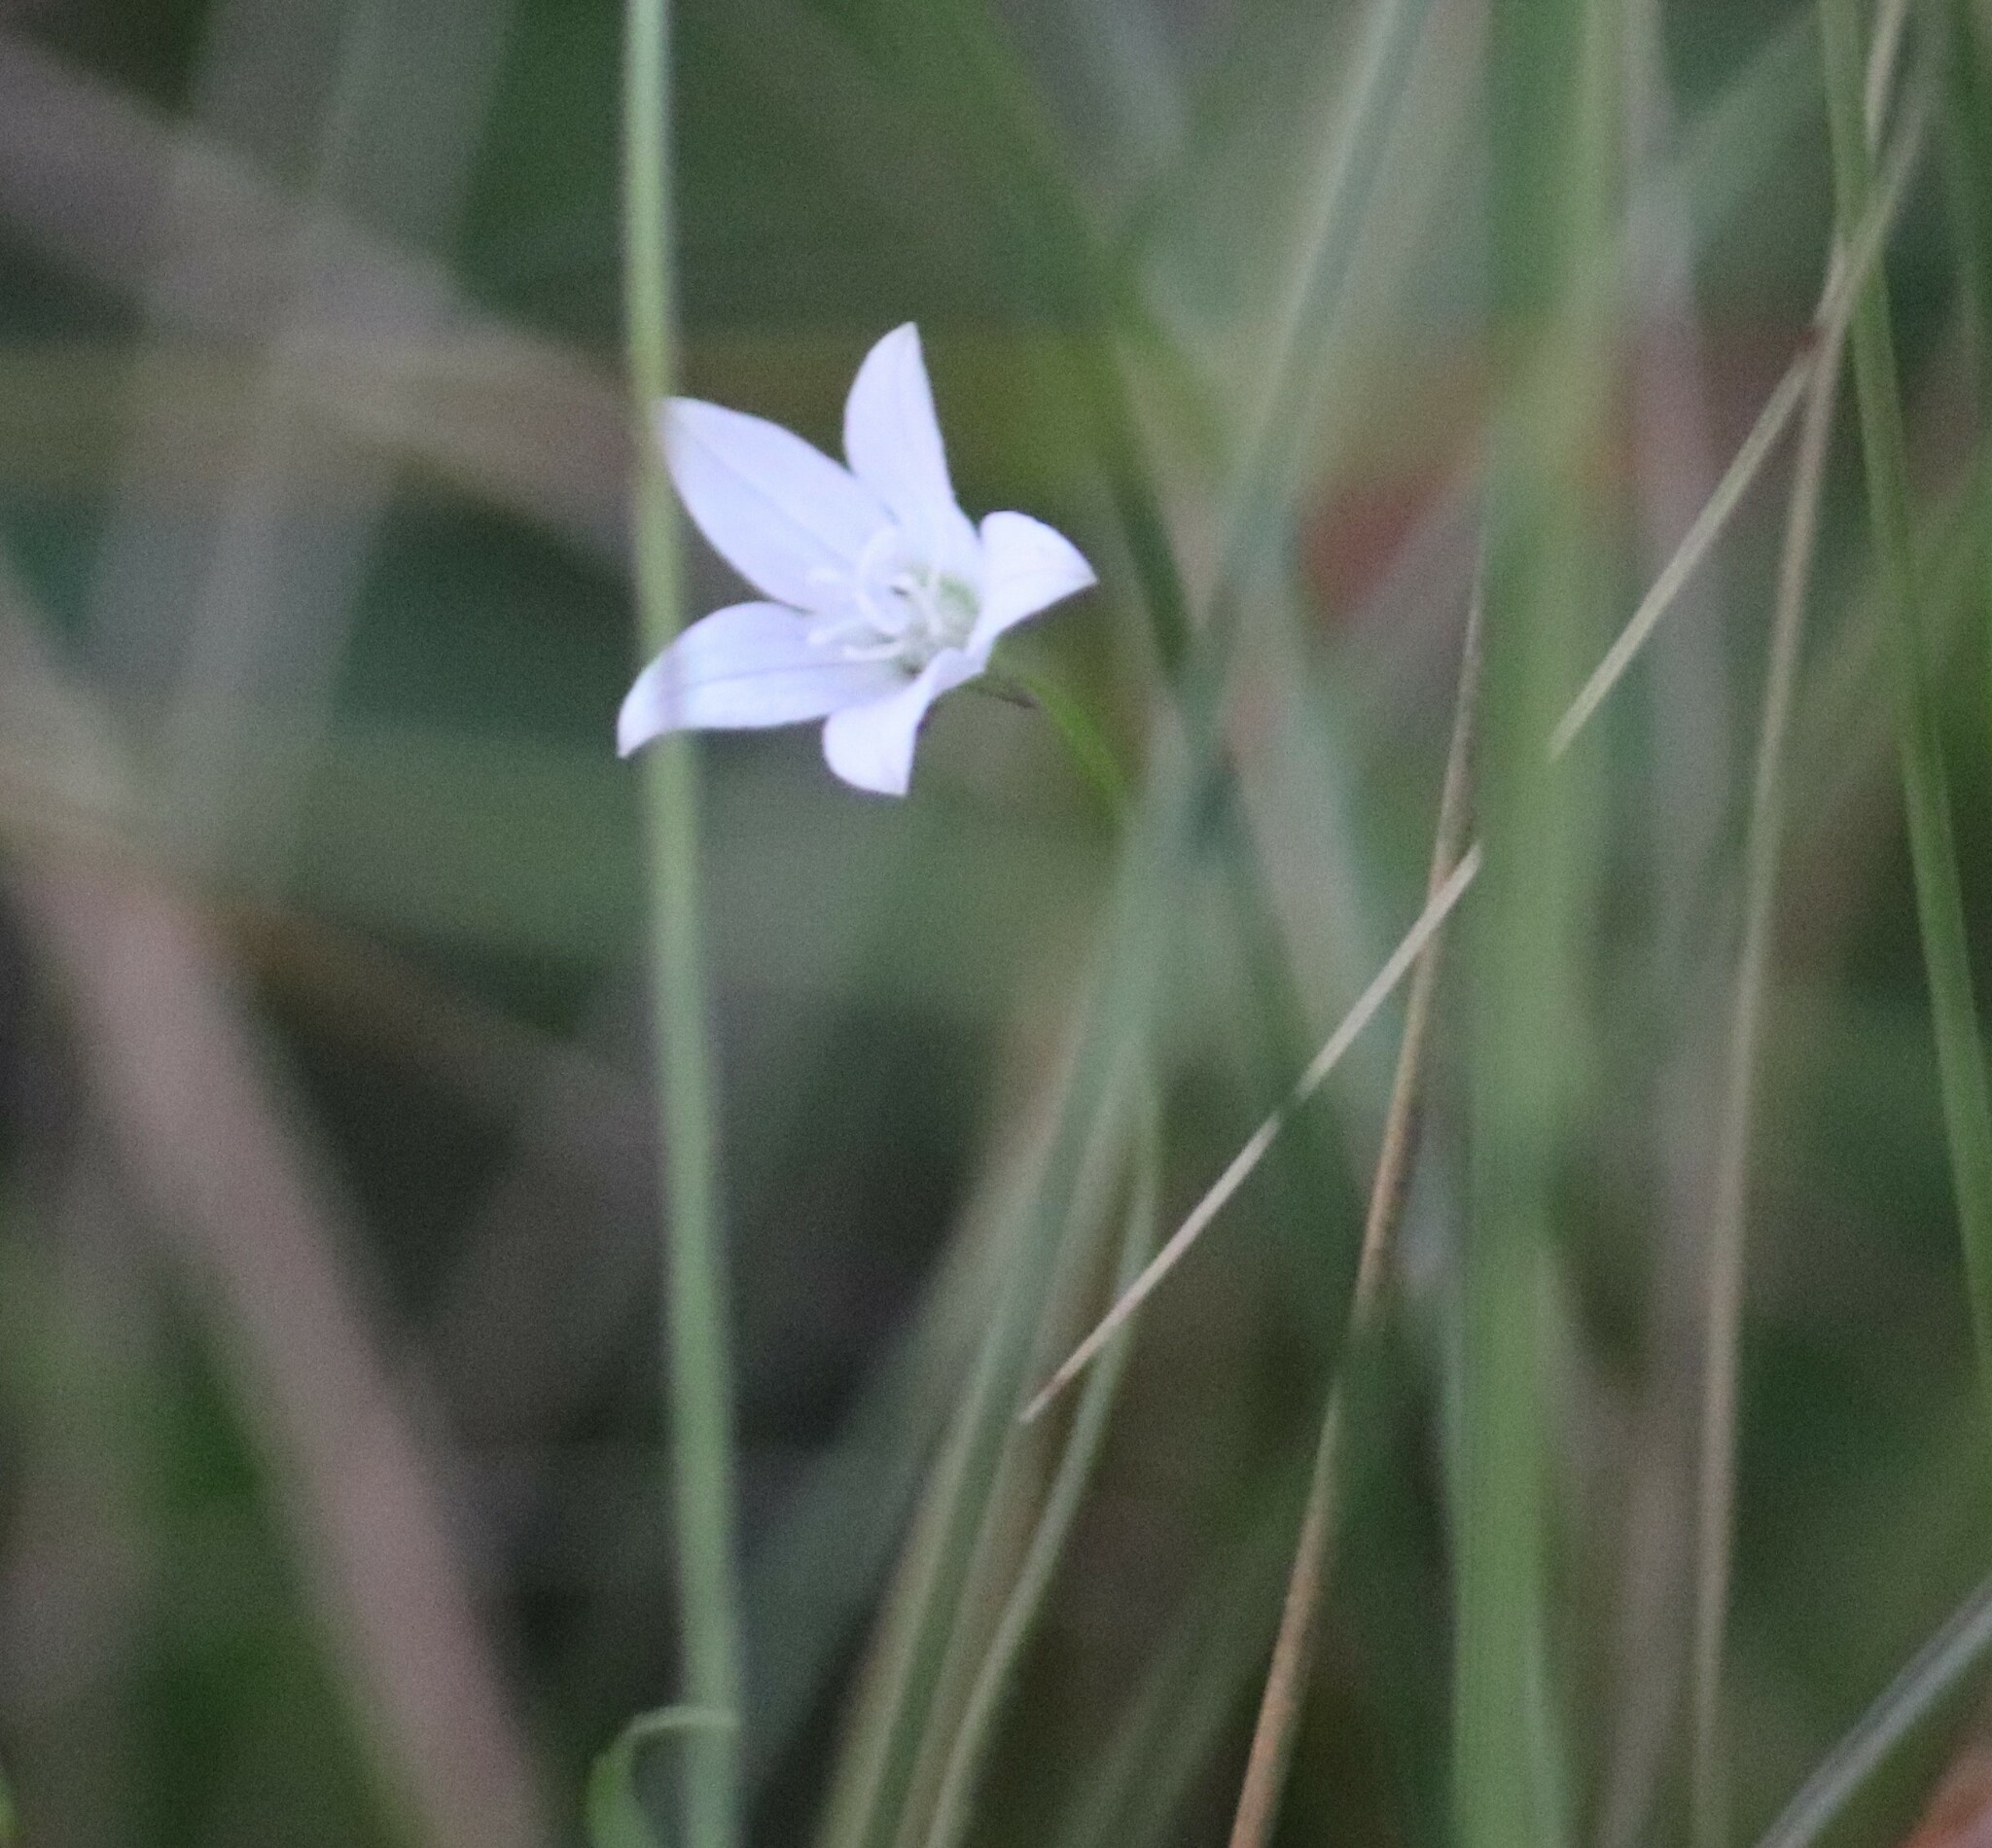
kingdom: Plantae
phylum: Tracheophyta
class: Magnoliopsida
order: Asterales
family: Campanulaceae
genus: Palustricodon
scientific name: Palustricodon aparinoides
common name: Bedstraw bellflower
